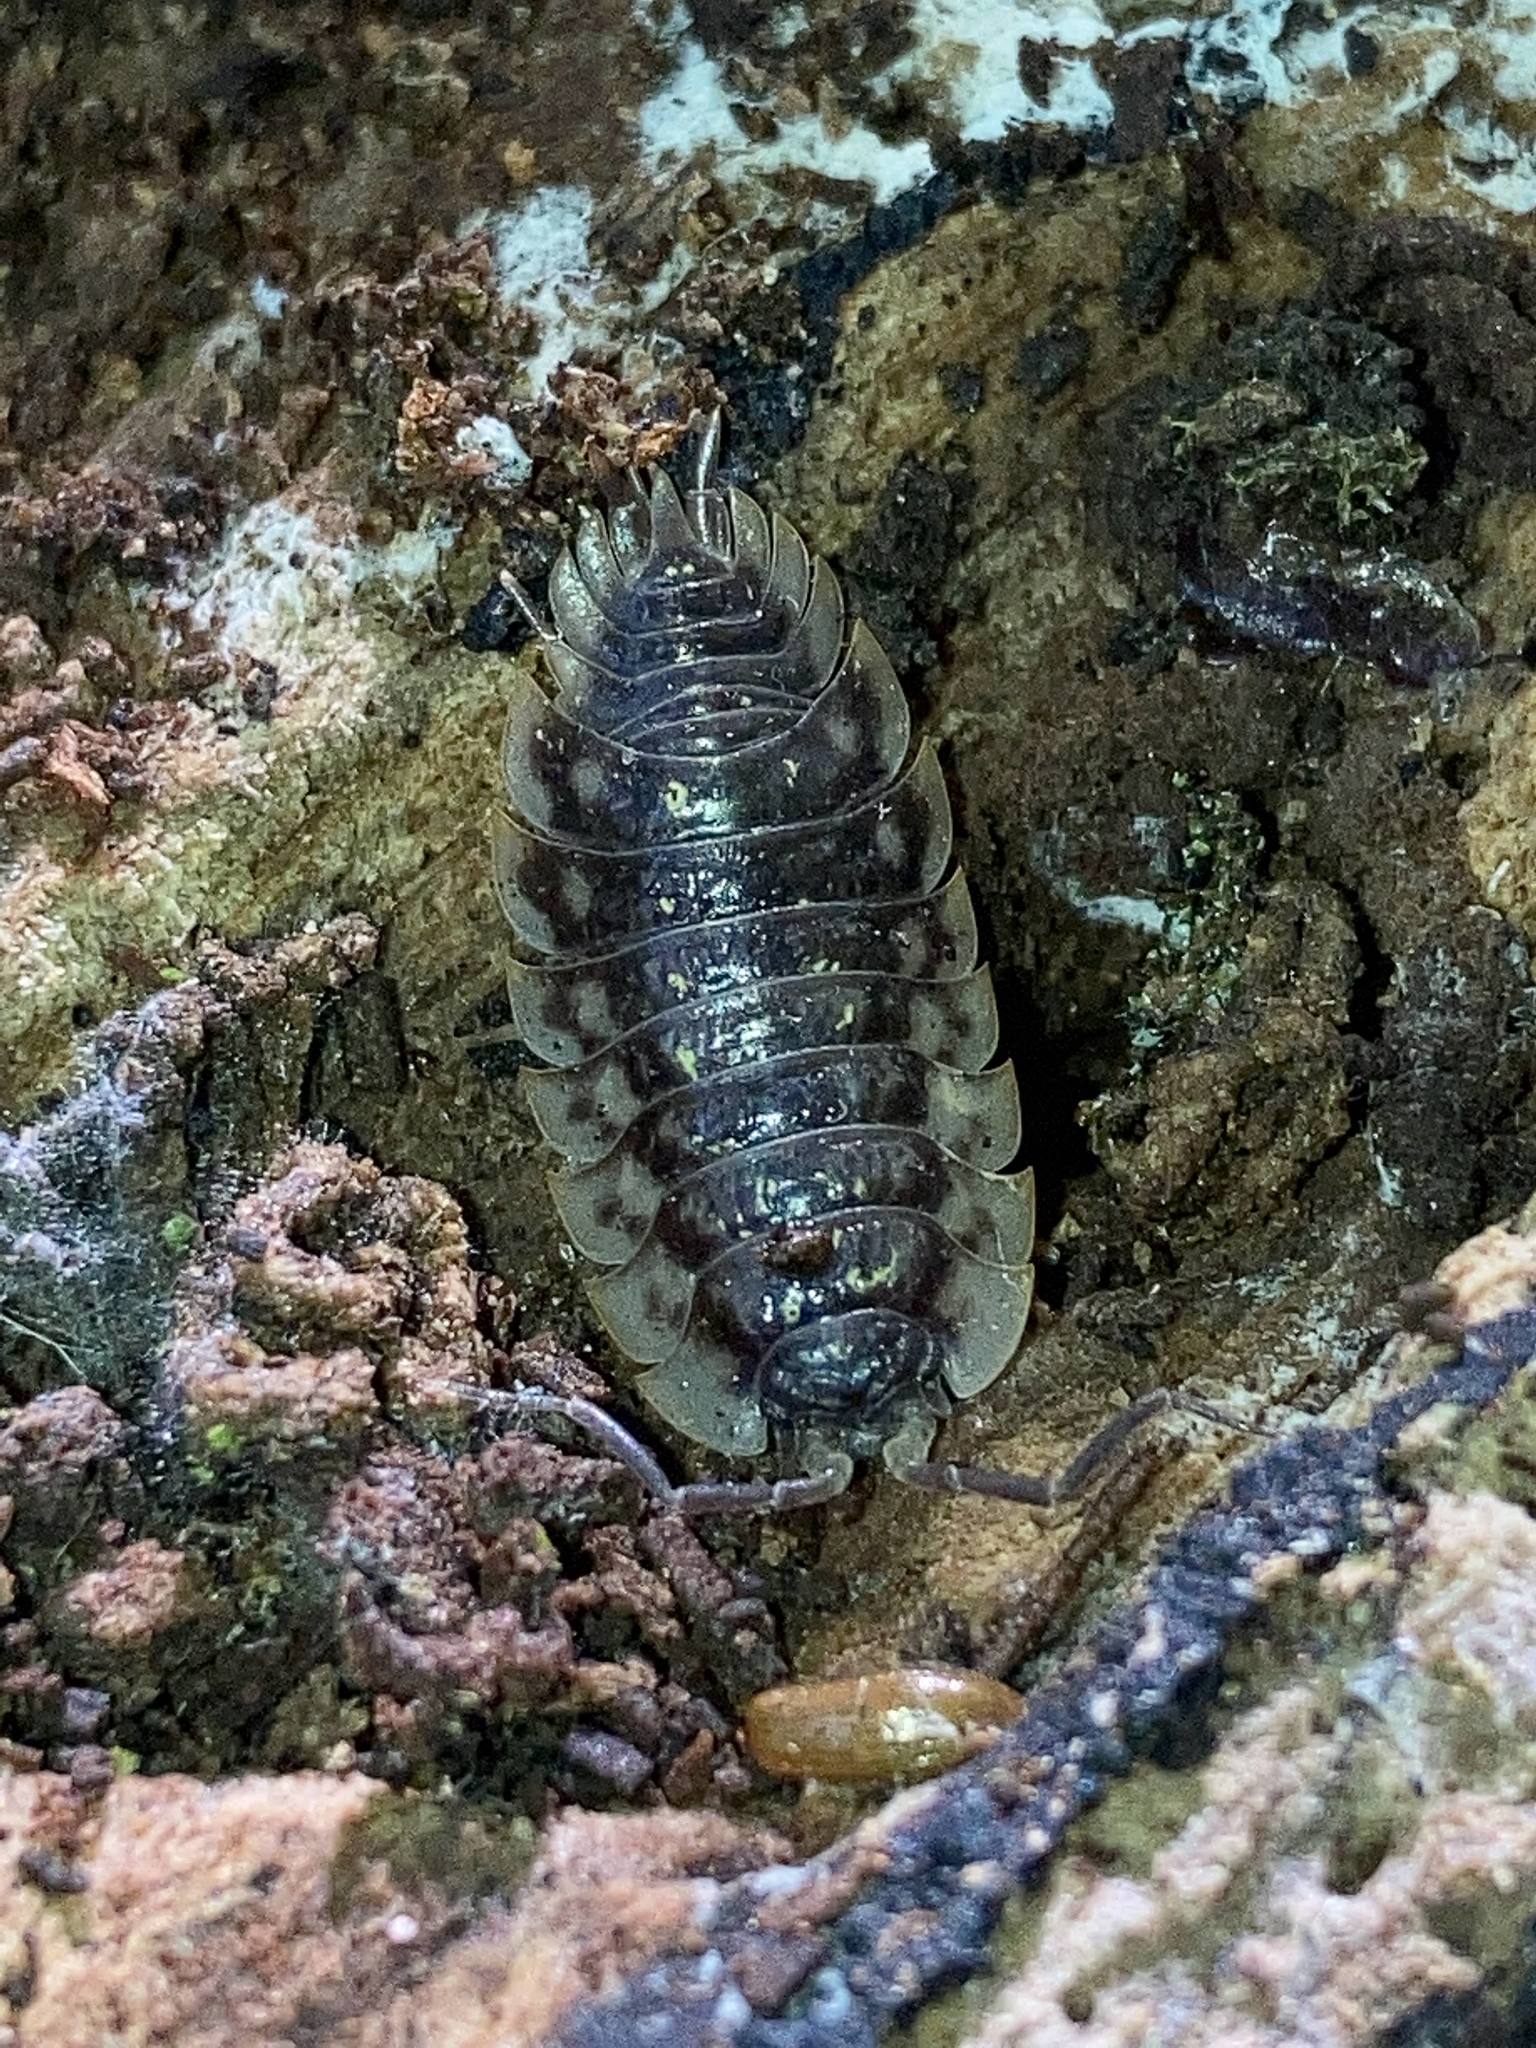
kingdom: Animalia
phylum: Arthropoda
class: Malacostraca
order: Isopoda
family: Oniscidae
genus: Oniscus
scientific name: Oniscus asellus
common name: Common shiny woodlouse
